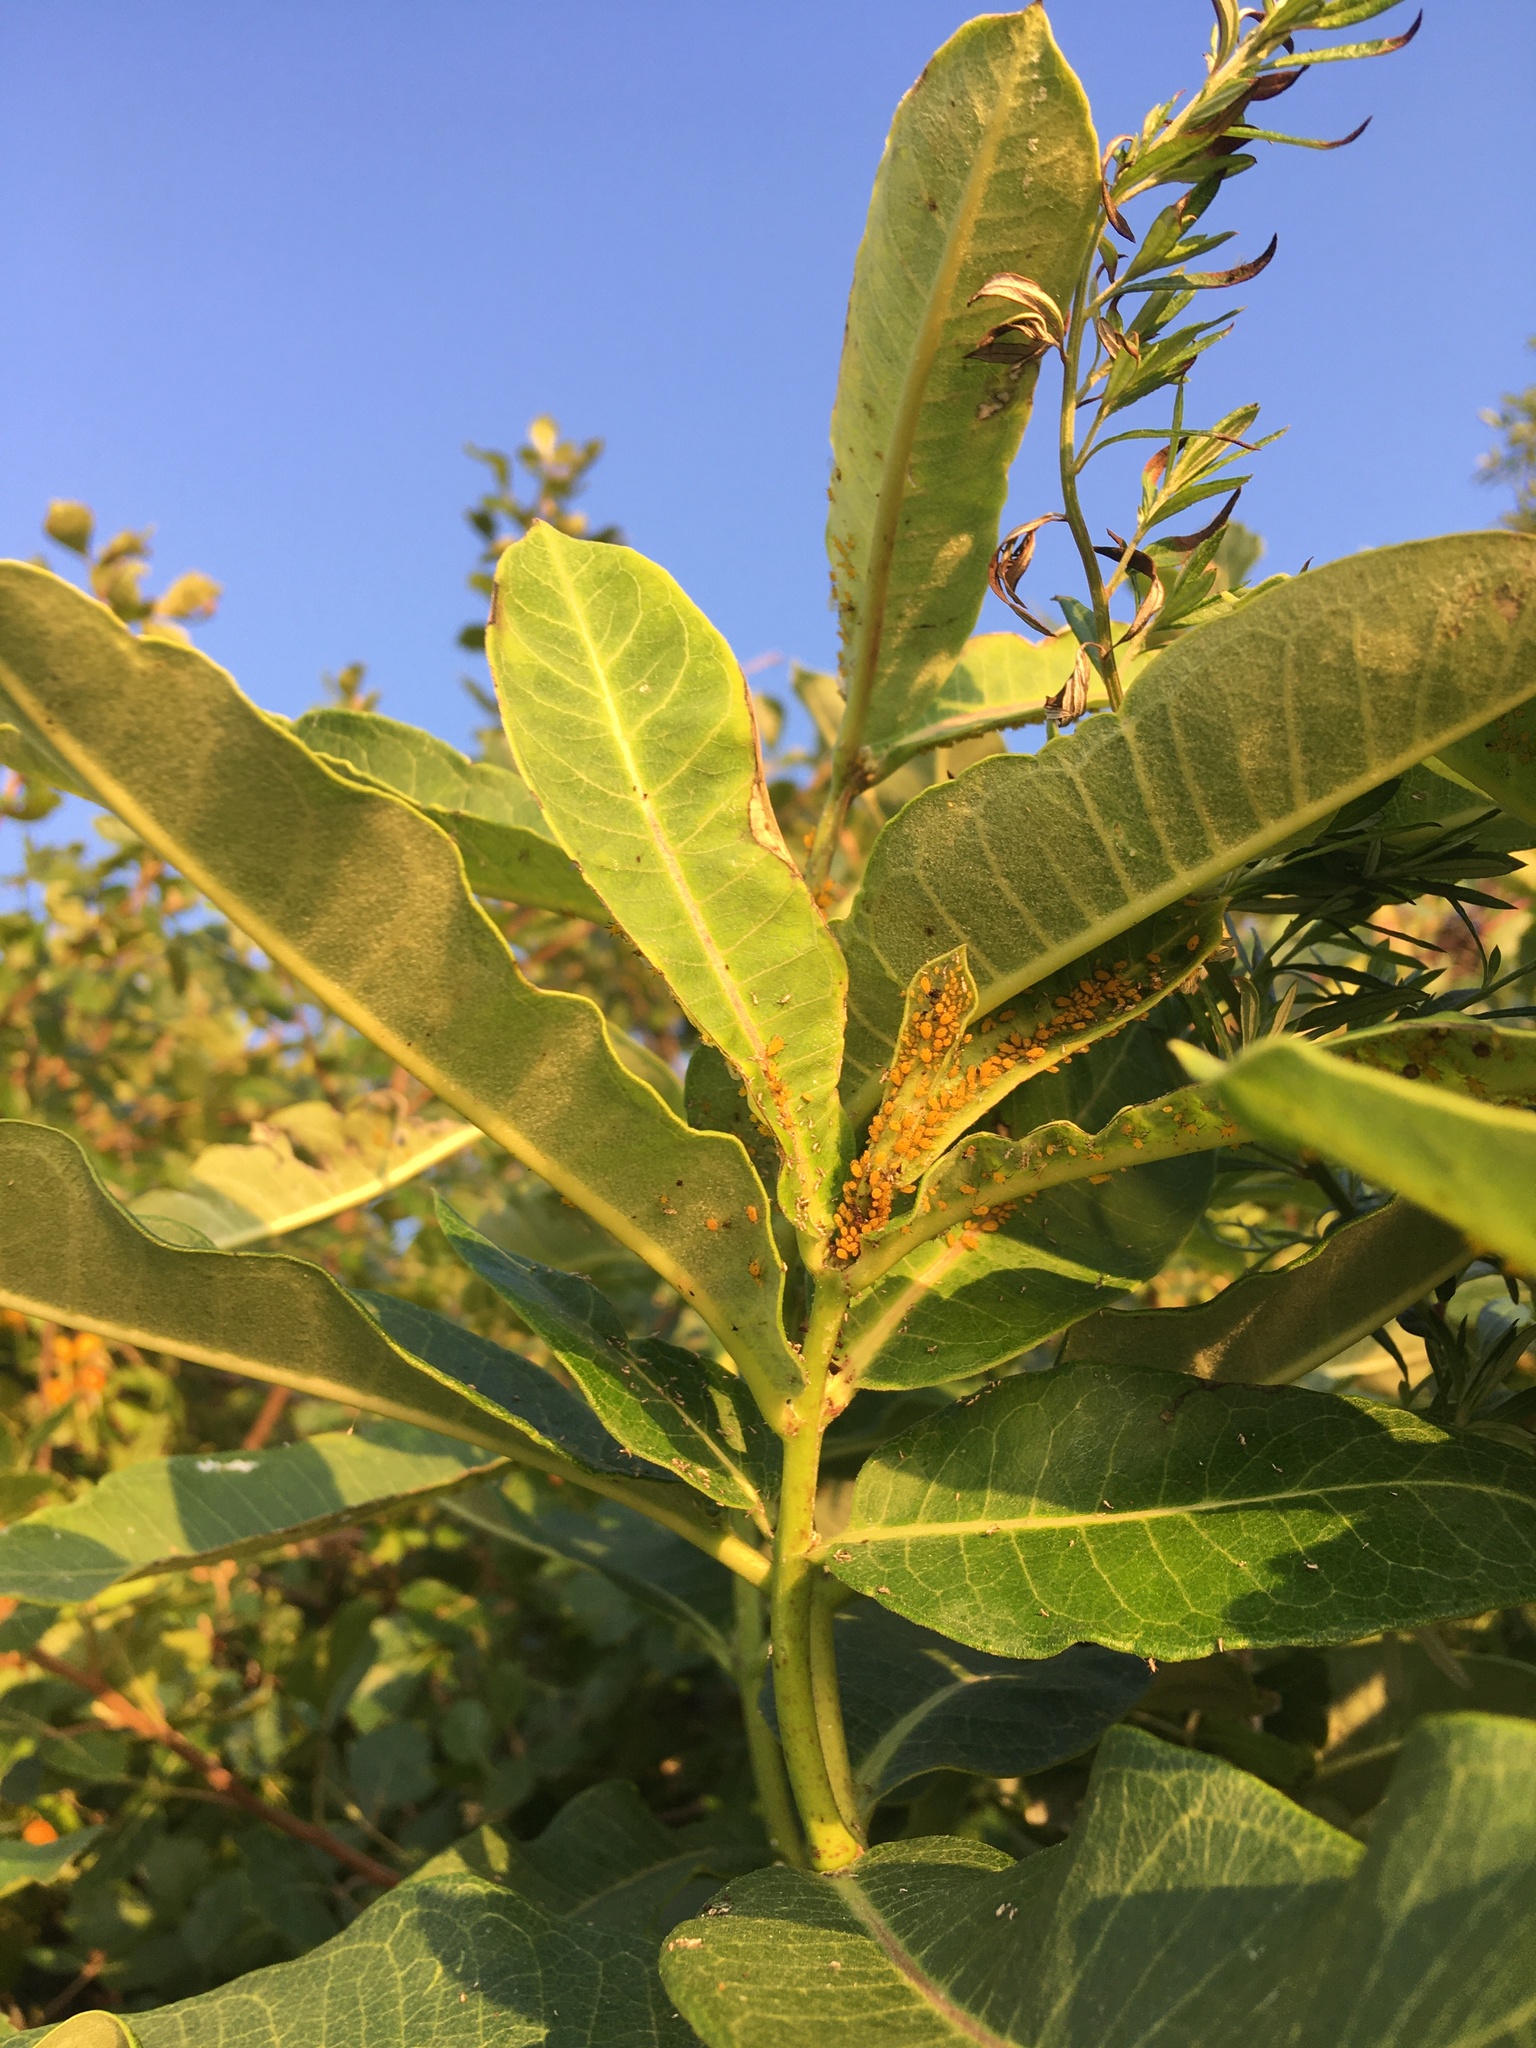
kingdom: Plantae
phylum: Tracheophyta
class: Magnoliopsida
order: Gentianales
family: Apocynaceae
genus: Asclepias
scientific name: Asclepias syriaca
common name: Common milkweed
